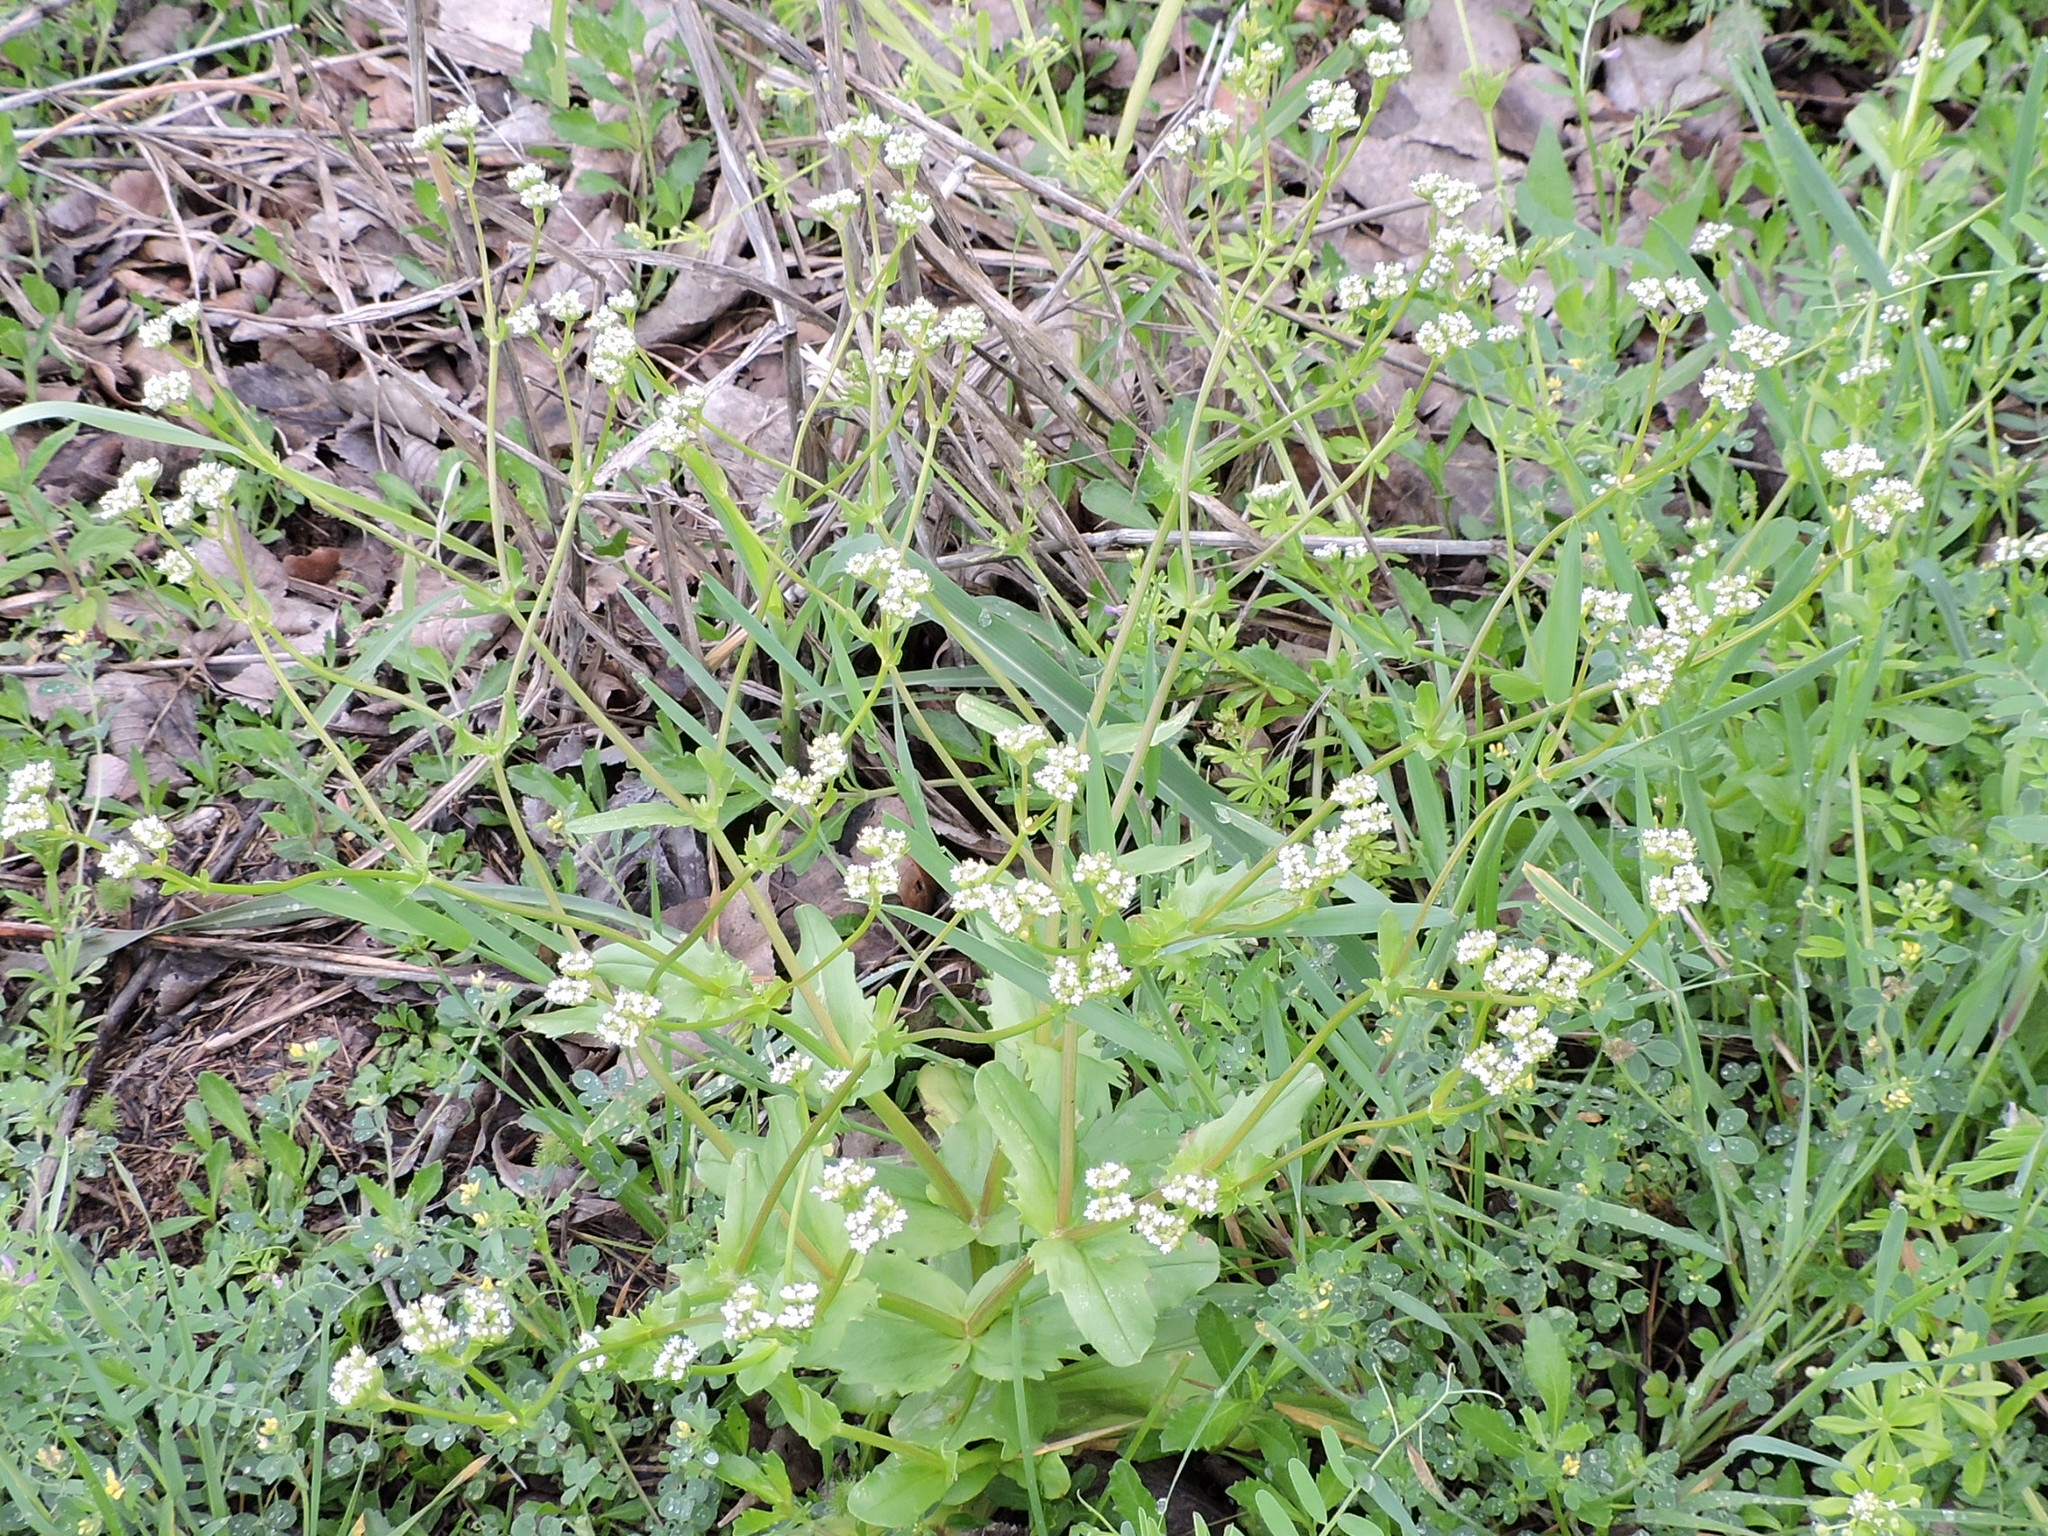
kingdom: Plantae
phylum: Tracheophyta
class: Magnoliopsida
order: Dipsacales
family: Caprifoliaceae
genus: Valerianella
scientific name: Valerianella radiata
